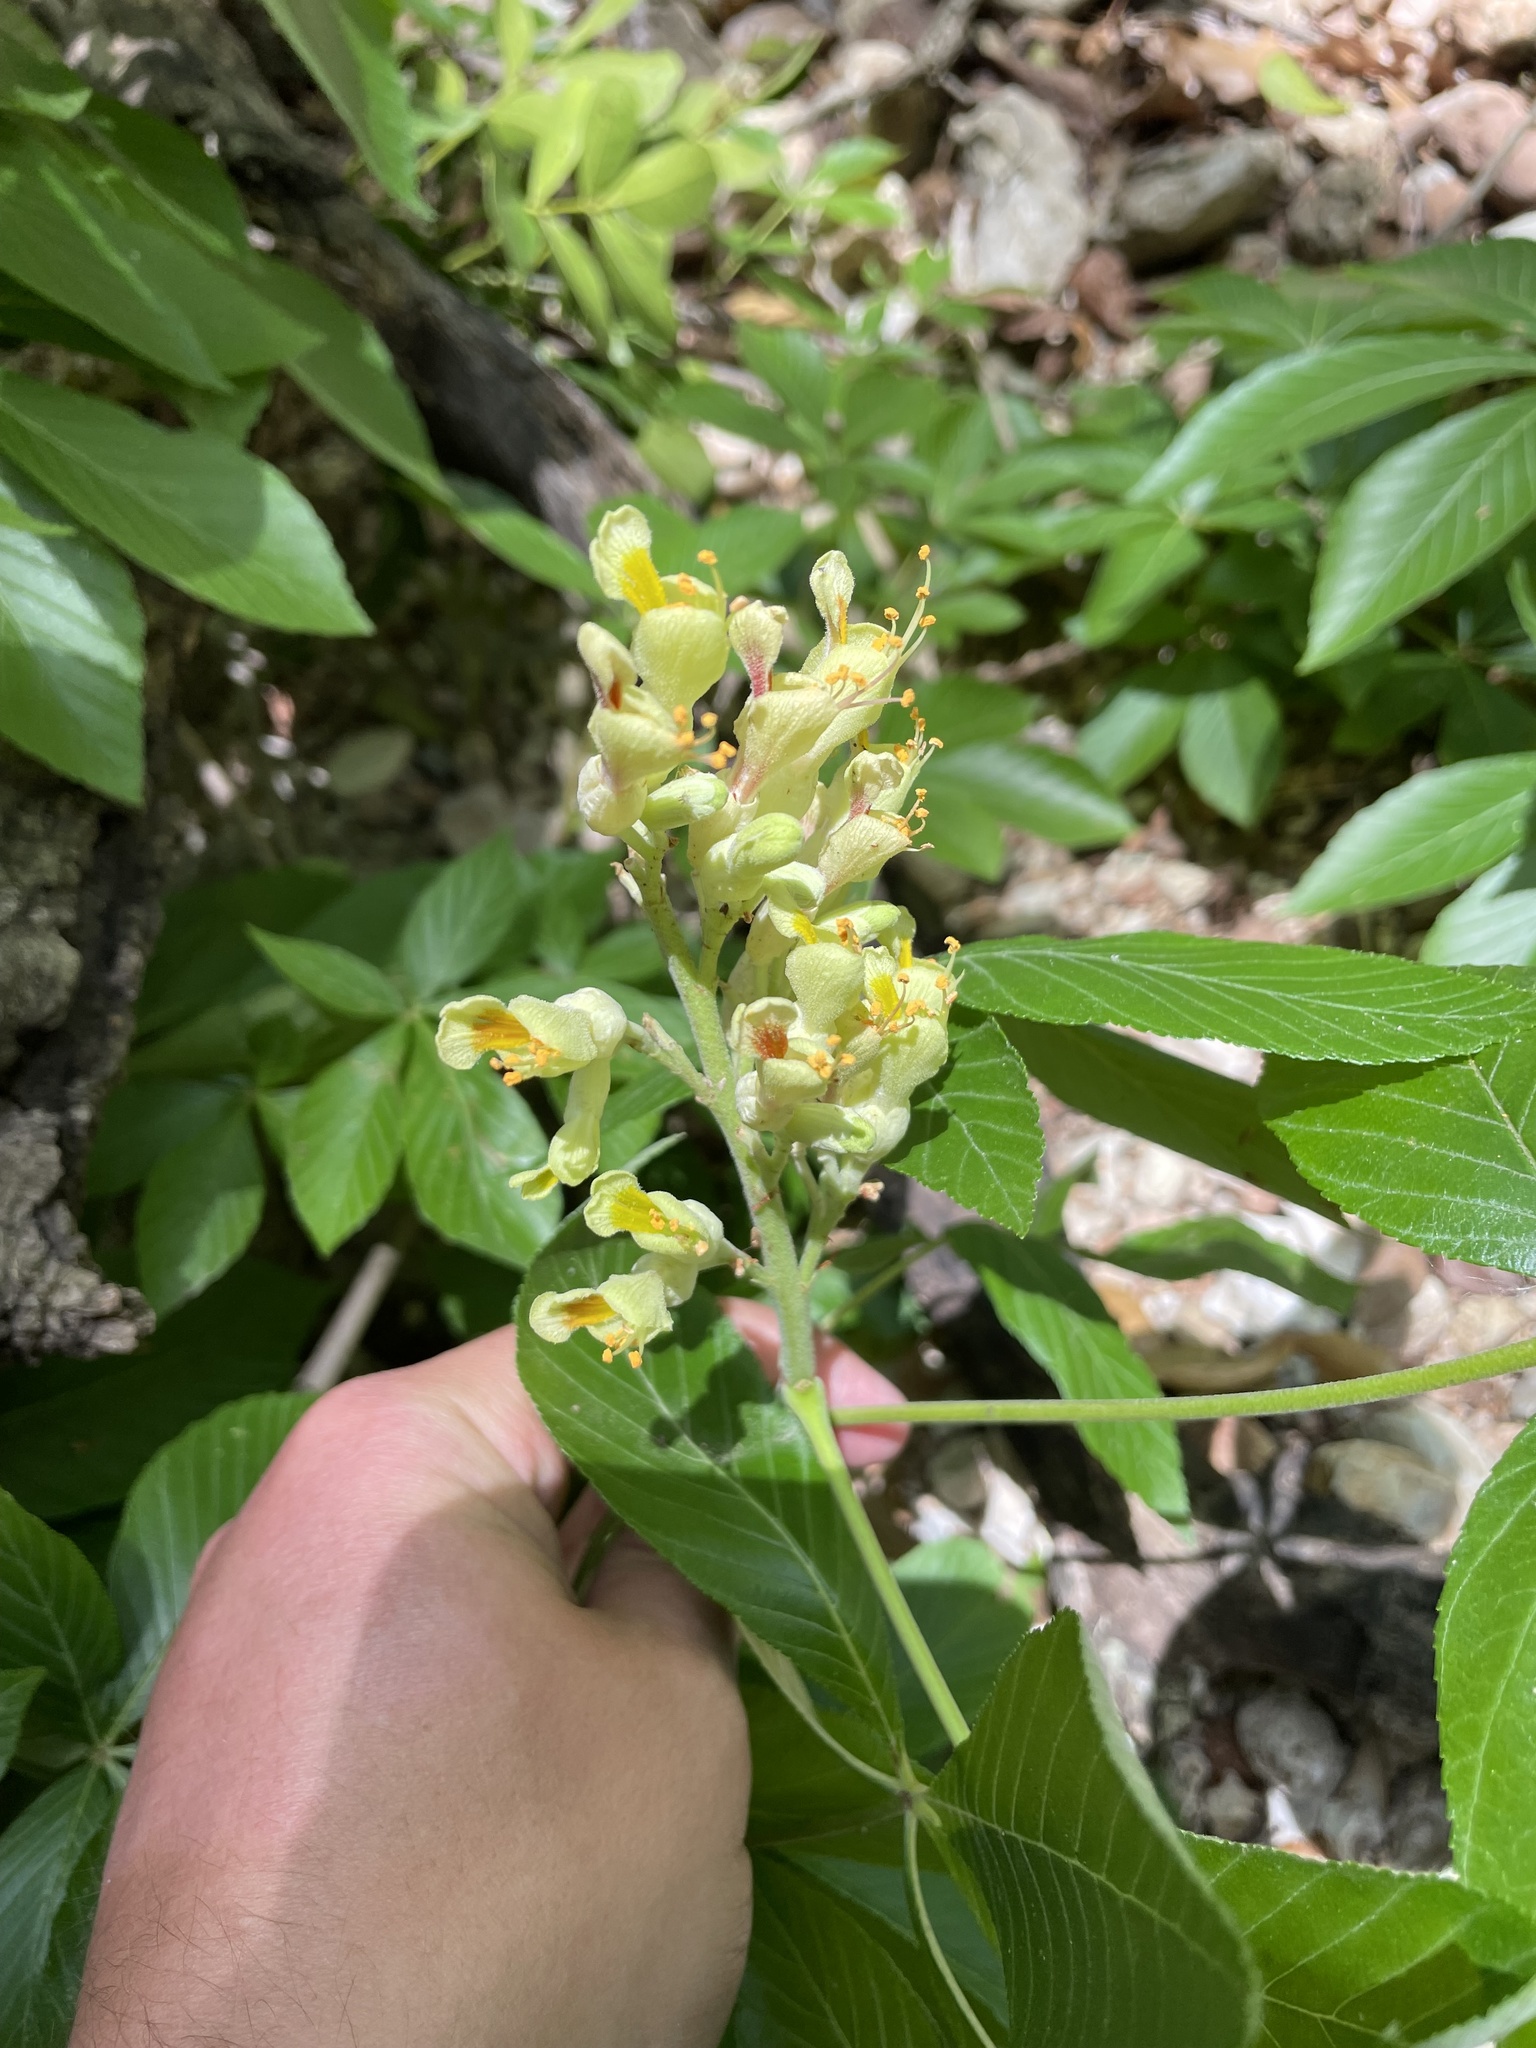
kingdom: Plantae
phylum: Tracheophyta
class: Magnoliopsida
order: Sapindales
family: Sapindaceae
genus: Aesculus
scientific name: Aesculus pavia
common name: Red buckeye
